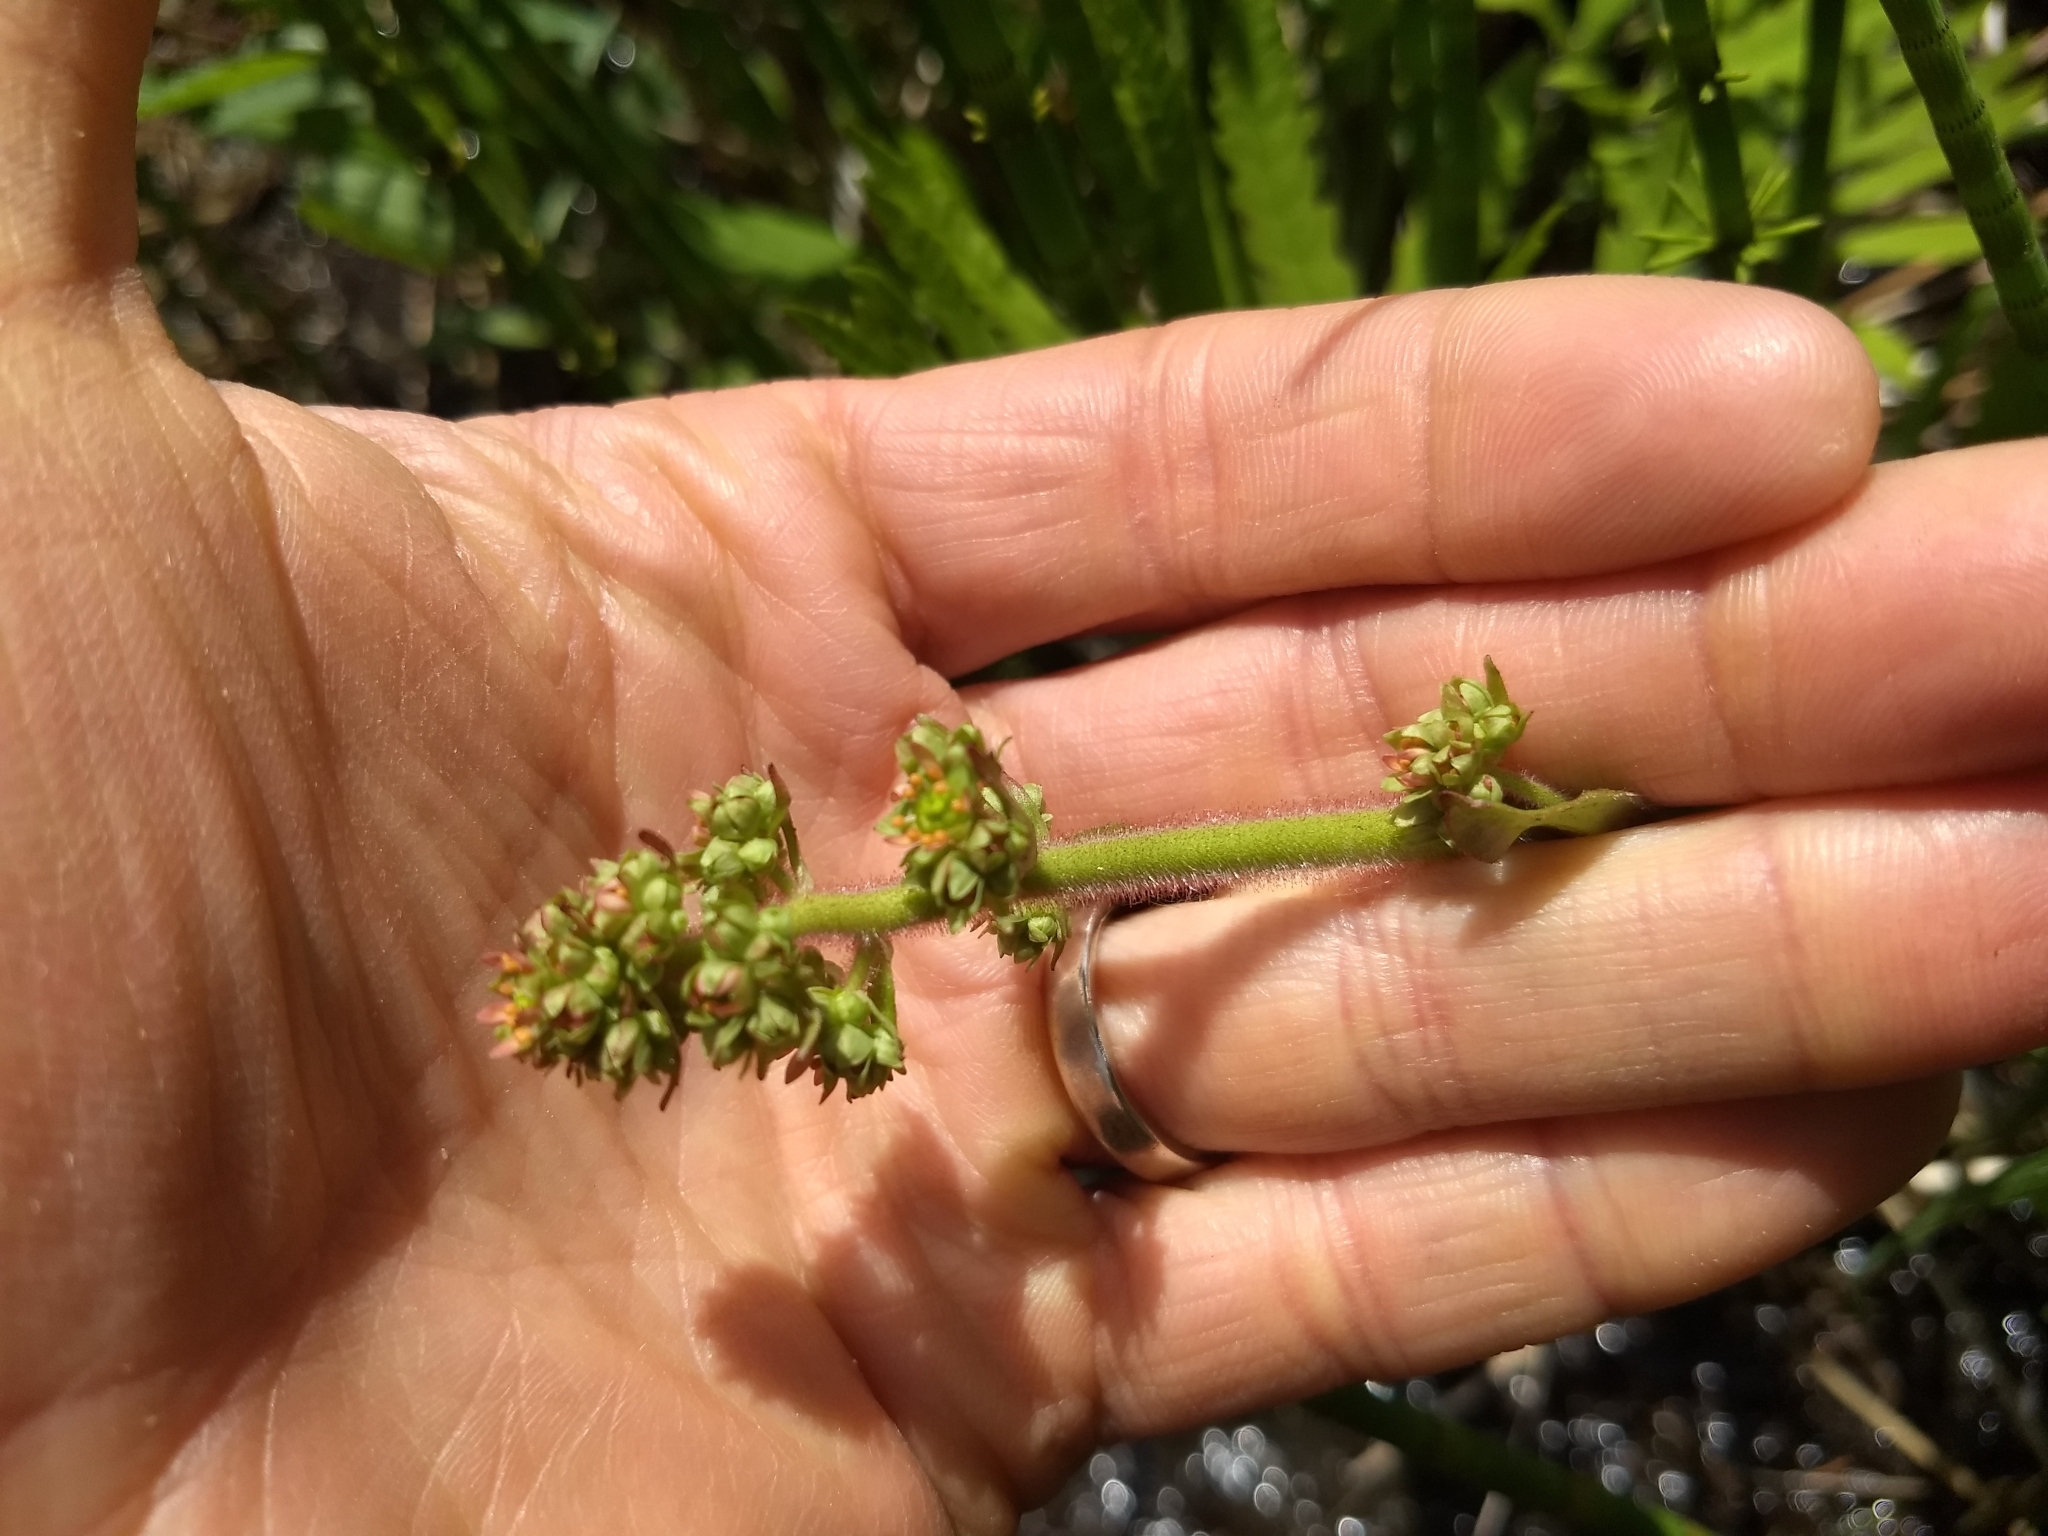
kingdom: Plantae
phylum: Tracheophyta
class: Magnoliopsida
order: Saxifragales
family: Saxifragaceae
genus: Micranthes
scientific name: Micranthes pensylvanica
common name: Marsh saxifrage
